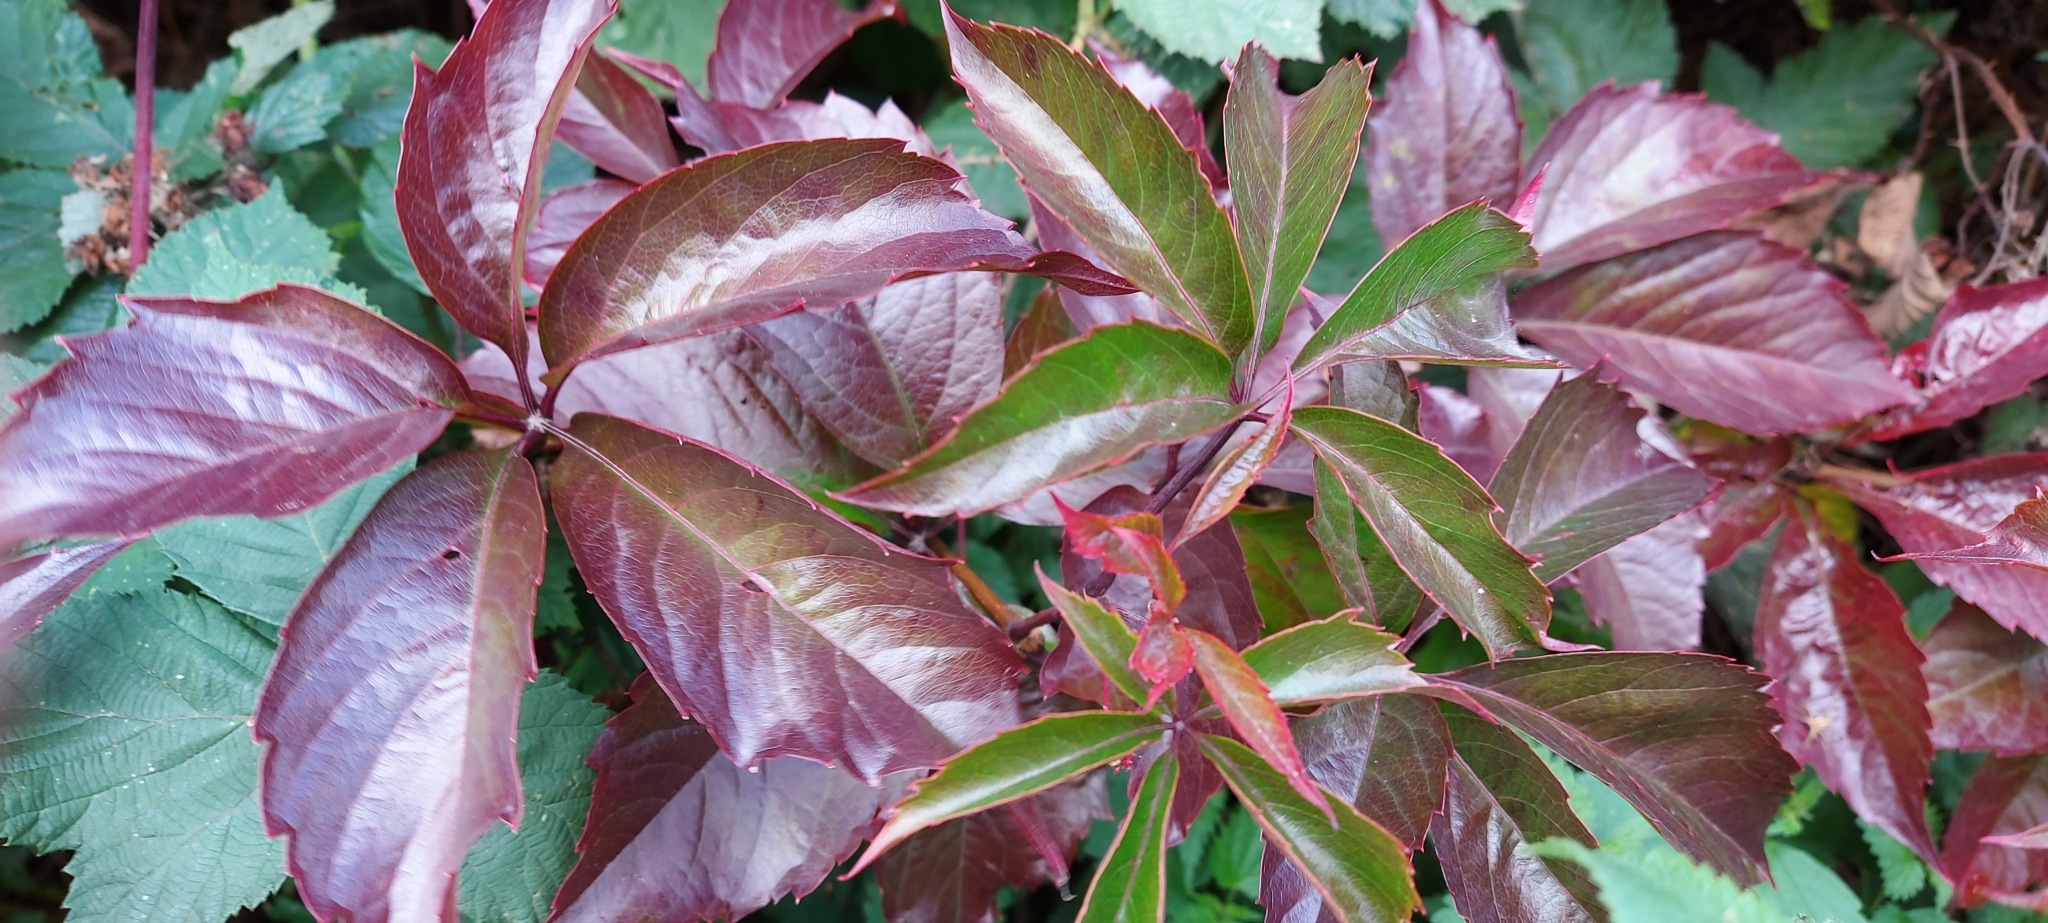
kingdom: Plantae
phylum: Tracheophyta
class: Magnoliopsida
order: Vitales
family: Vitaceae
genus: Parthenocissus
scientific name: Parthenocissus quinquefolia
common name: Virginia-creeper
